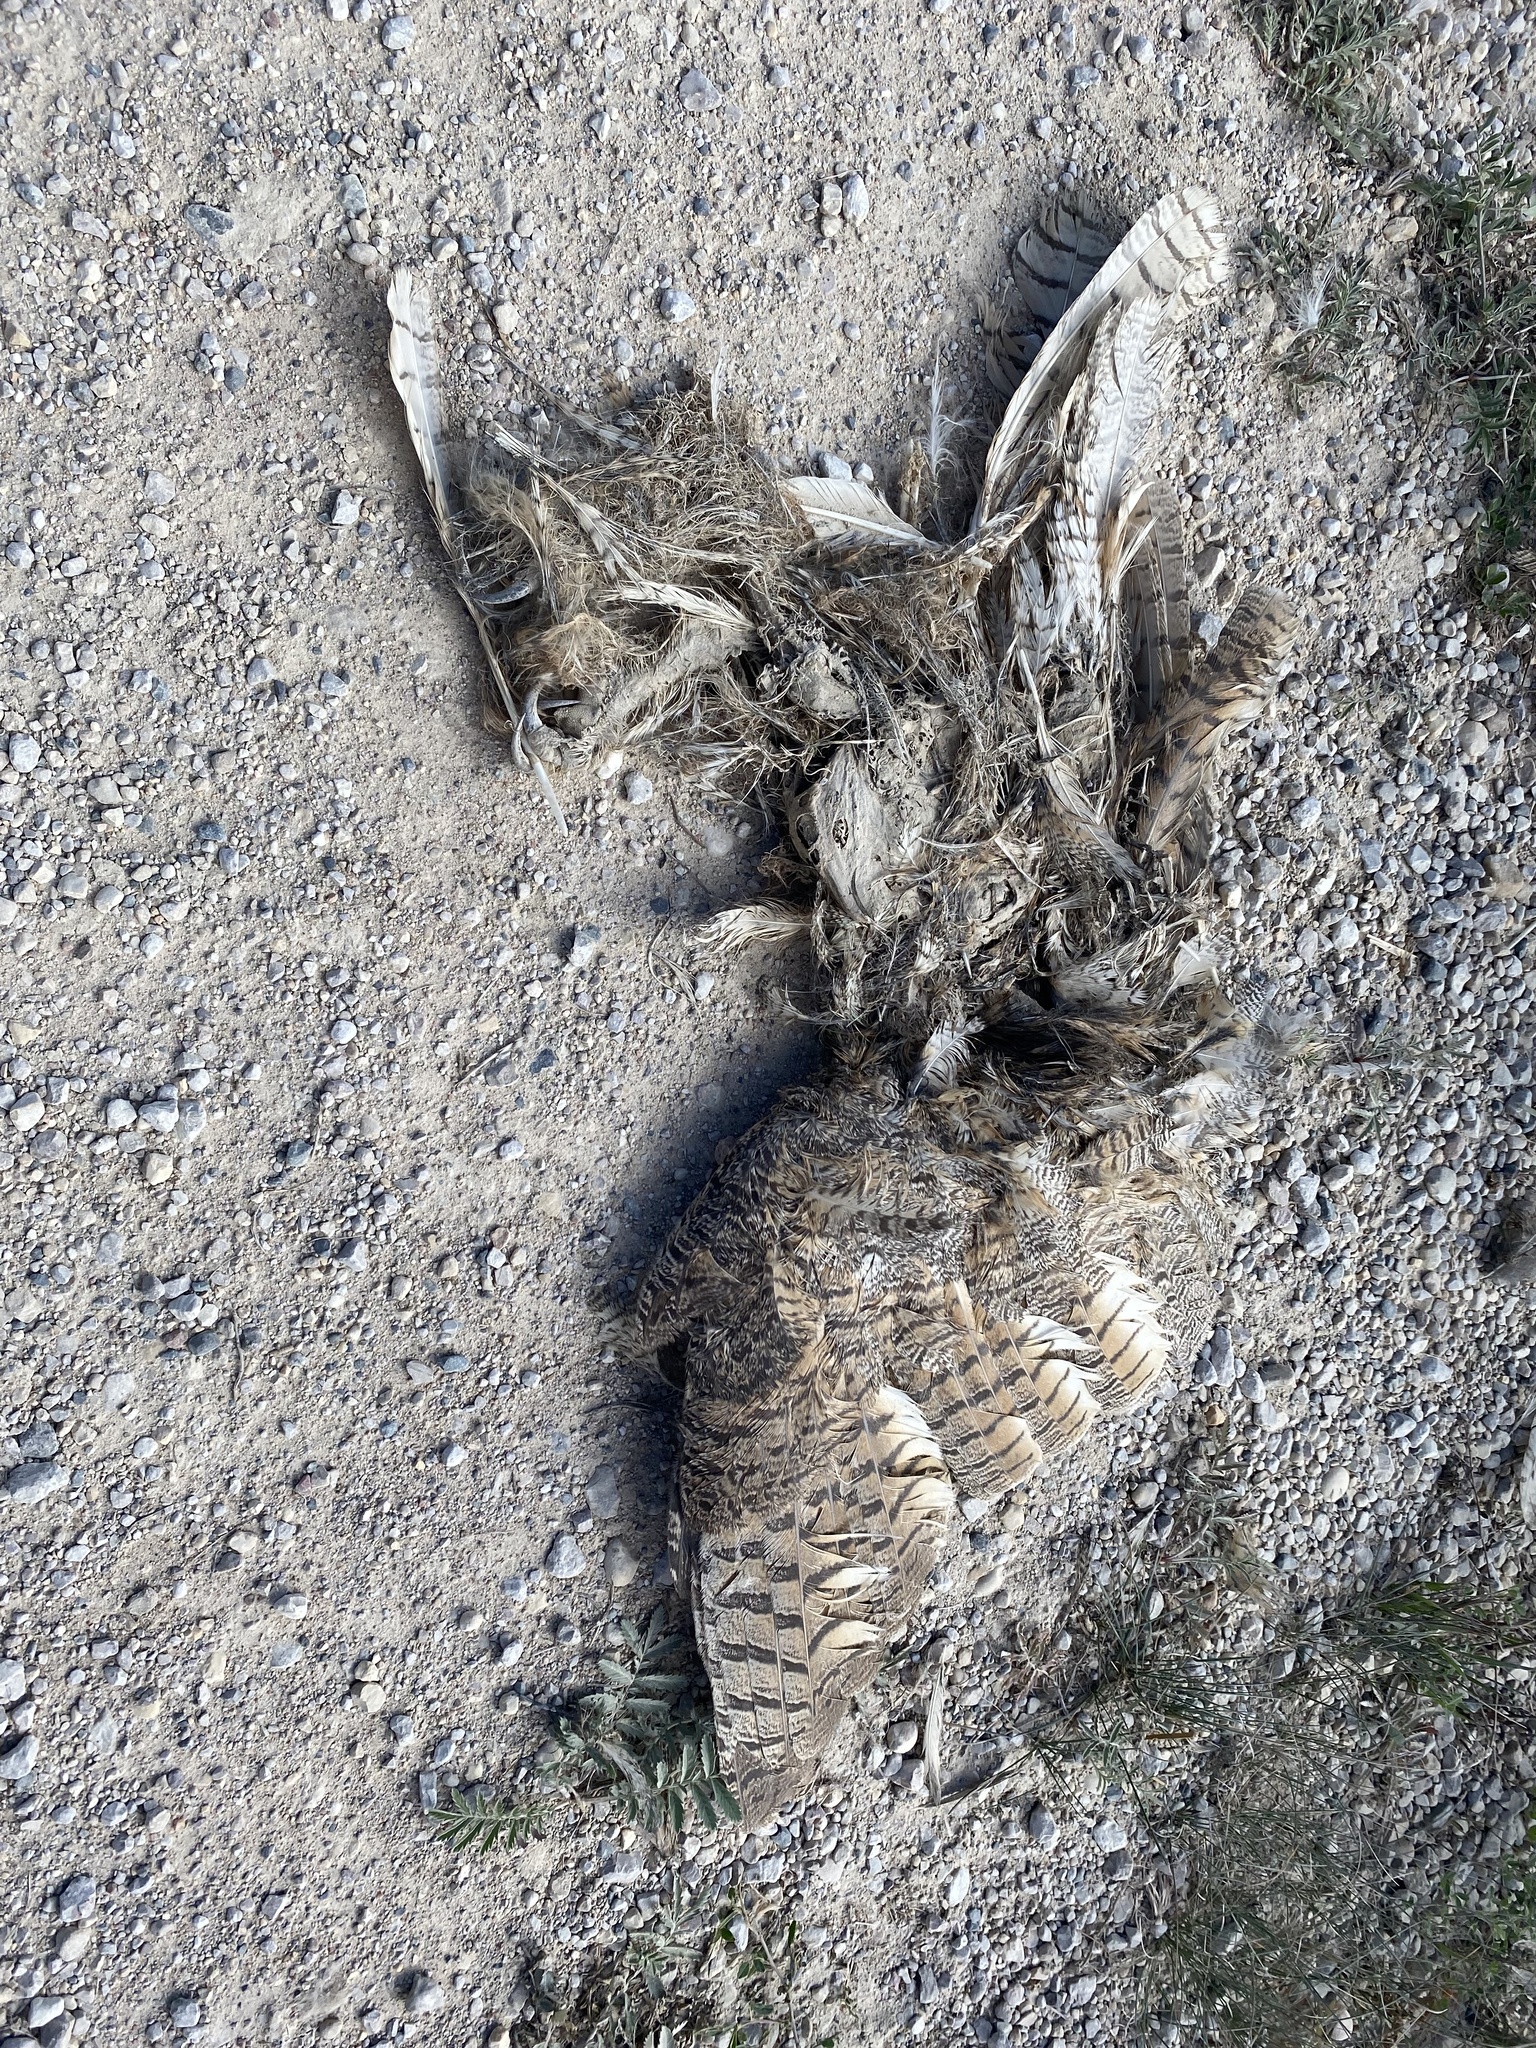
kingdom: Animalia
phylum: Chordata
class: Aves
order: Strigiformes
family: Strigidae
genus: Bubo
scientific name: Bubo virginianus
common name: Great horned owl
